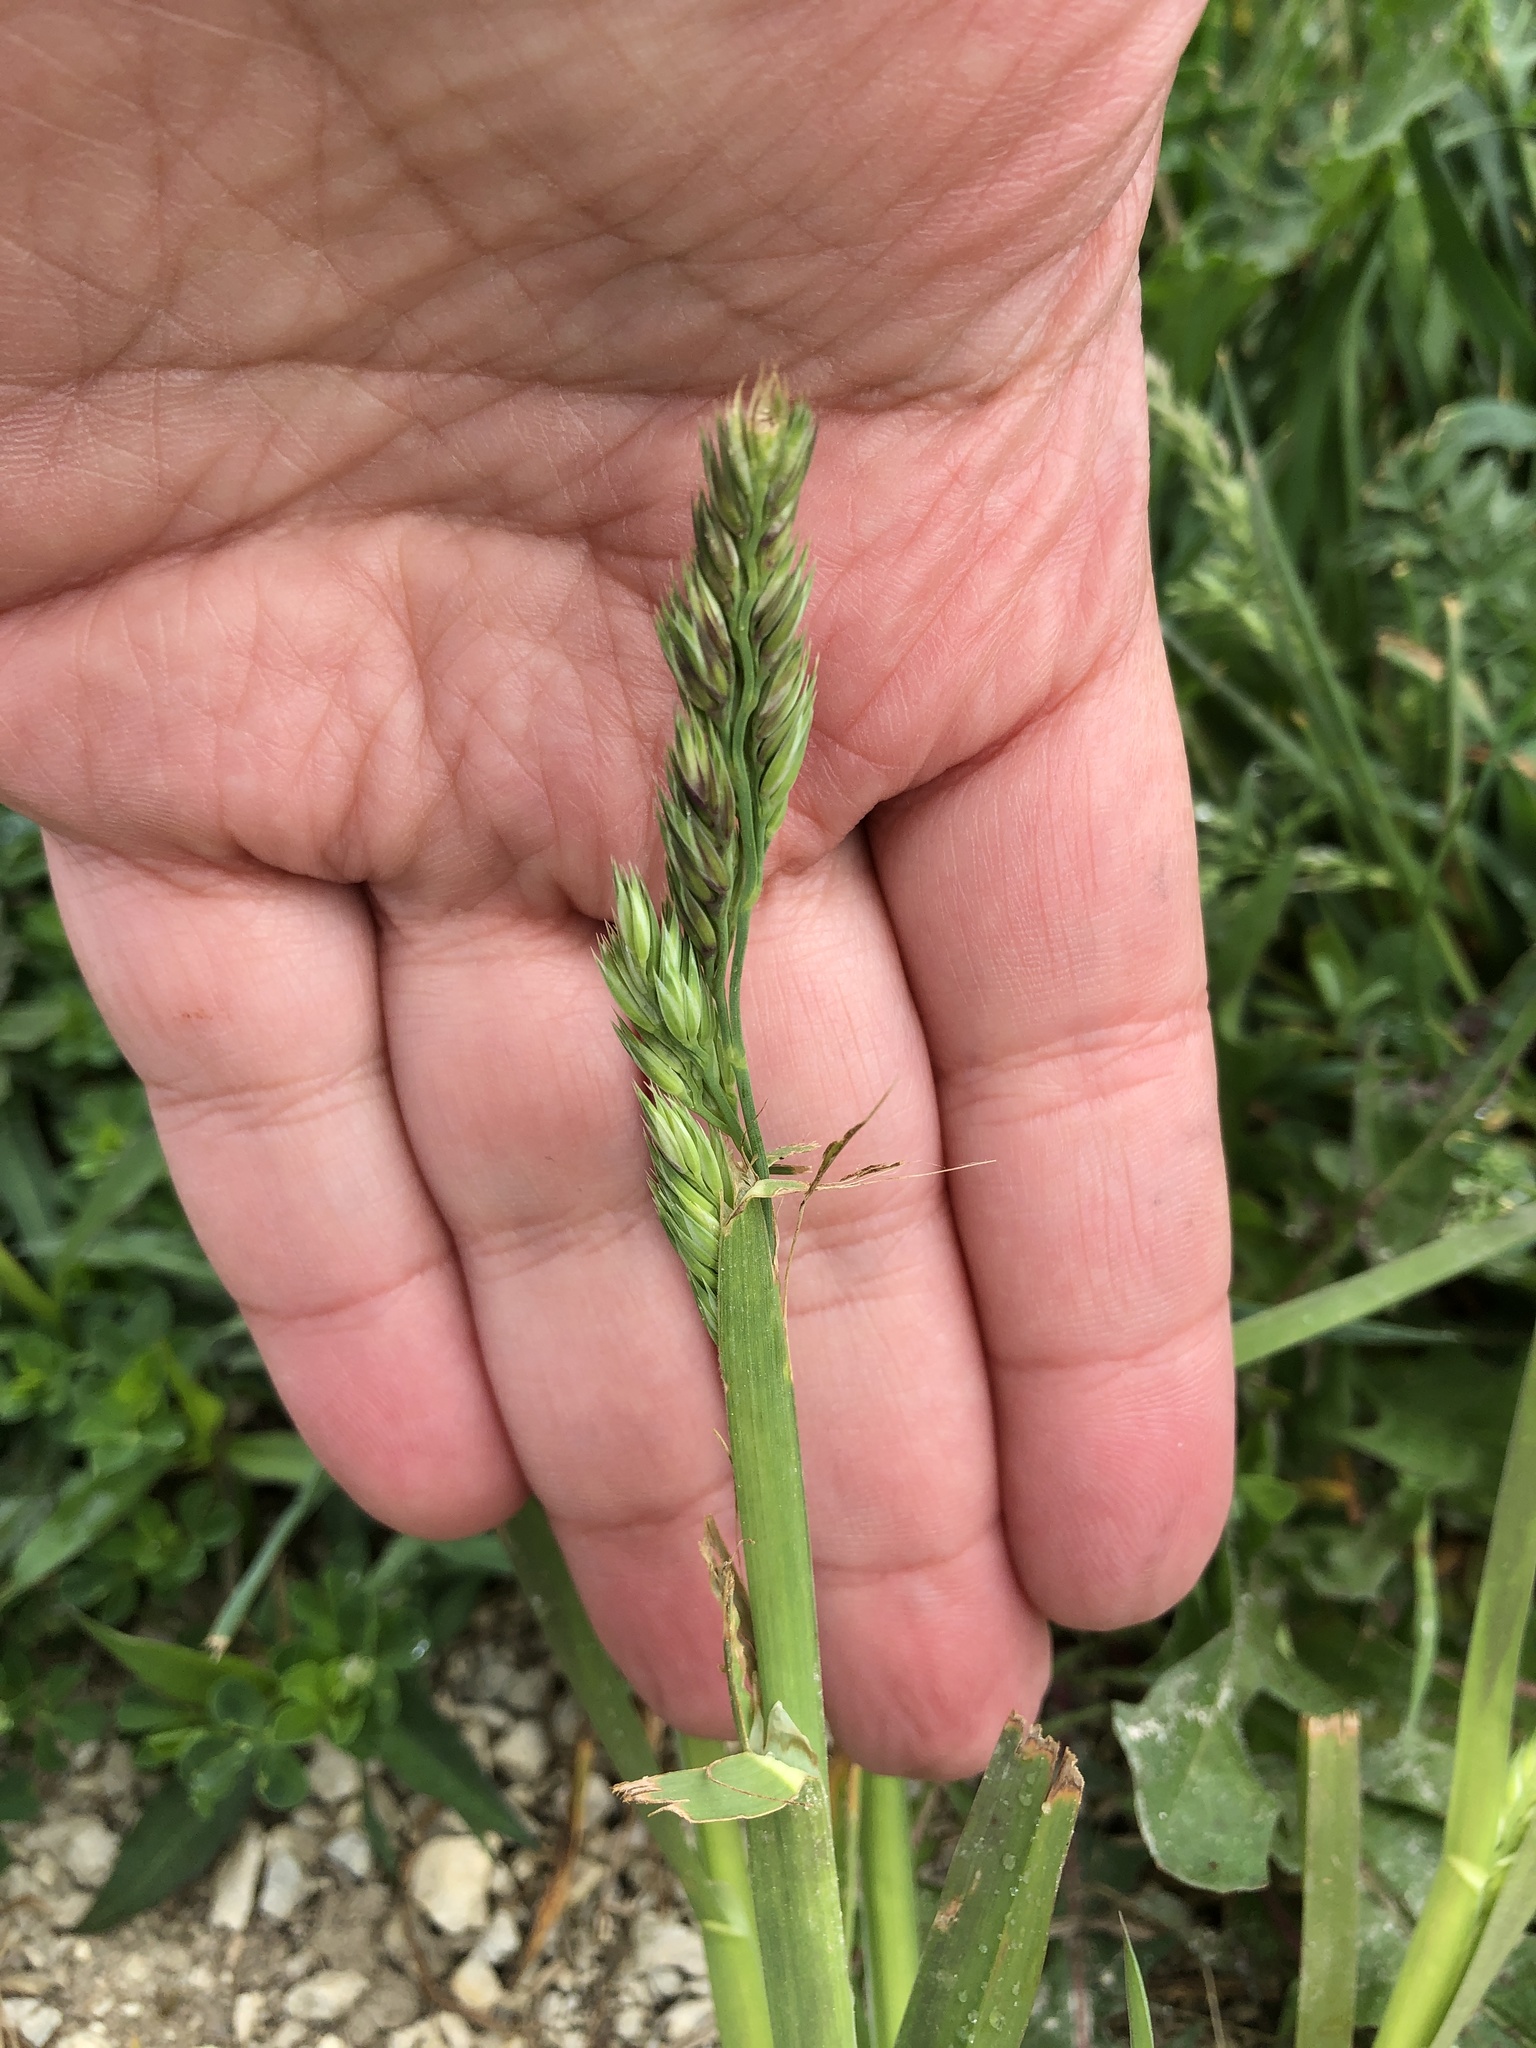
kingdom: Plantae
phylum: Tracheophyta
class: Liliopsida
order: Poales
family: Poaceae
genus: Dactylis
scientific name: Dactylis glomerata
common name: Orchardgrass
